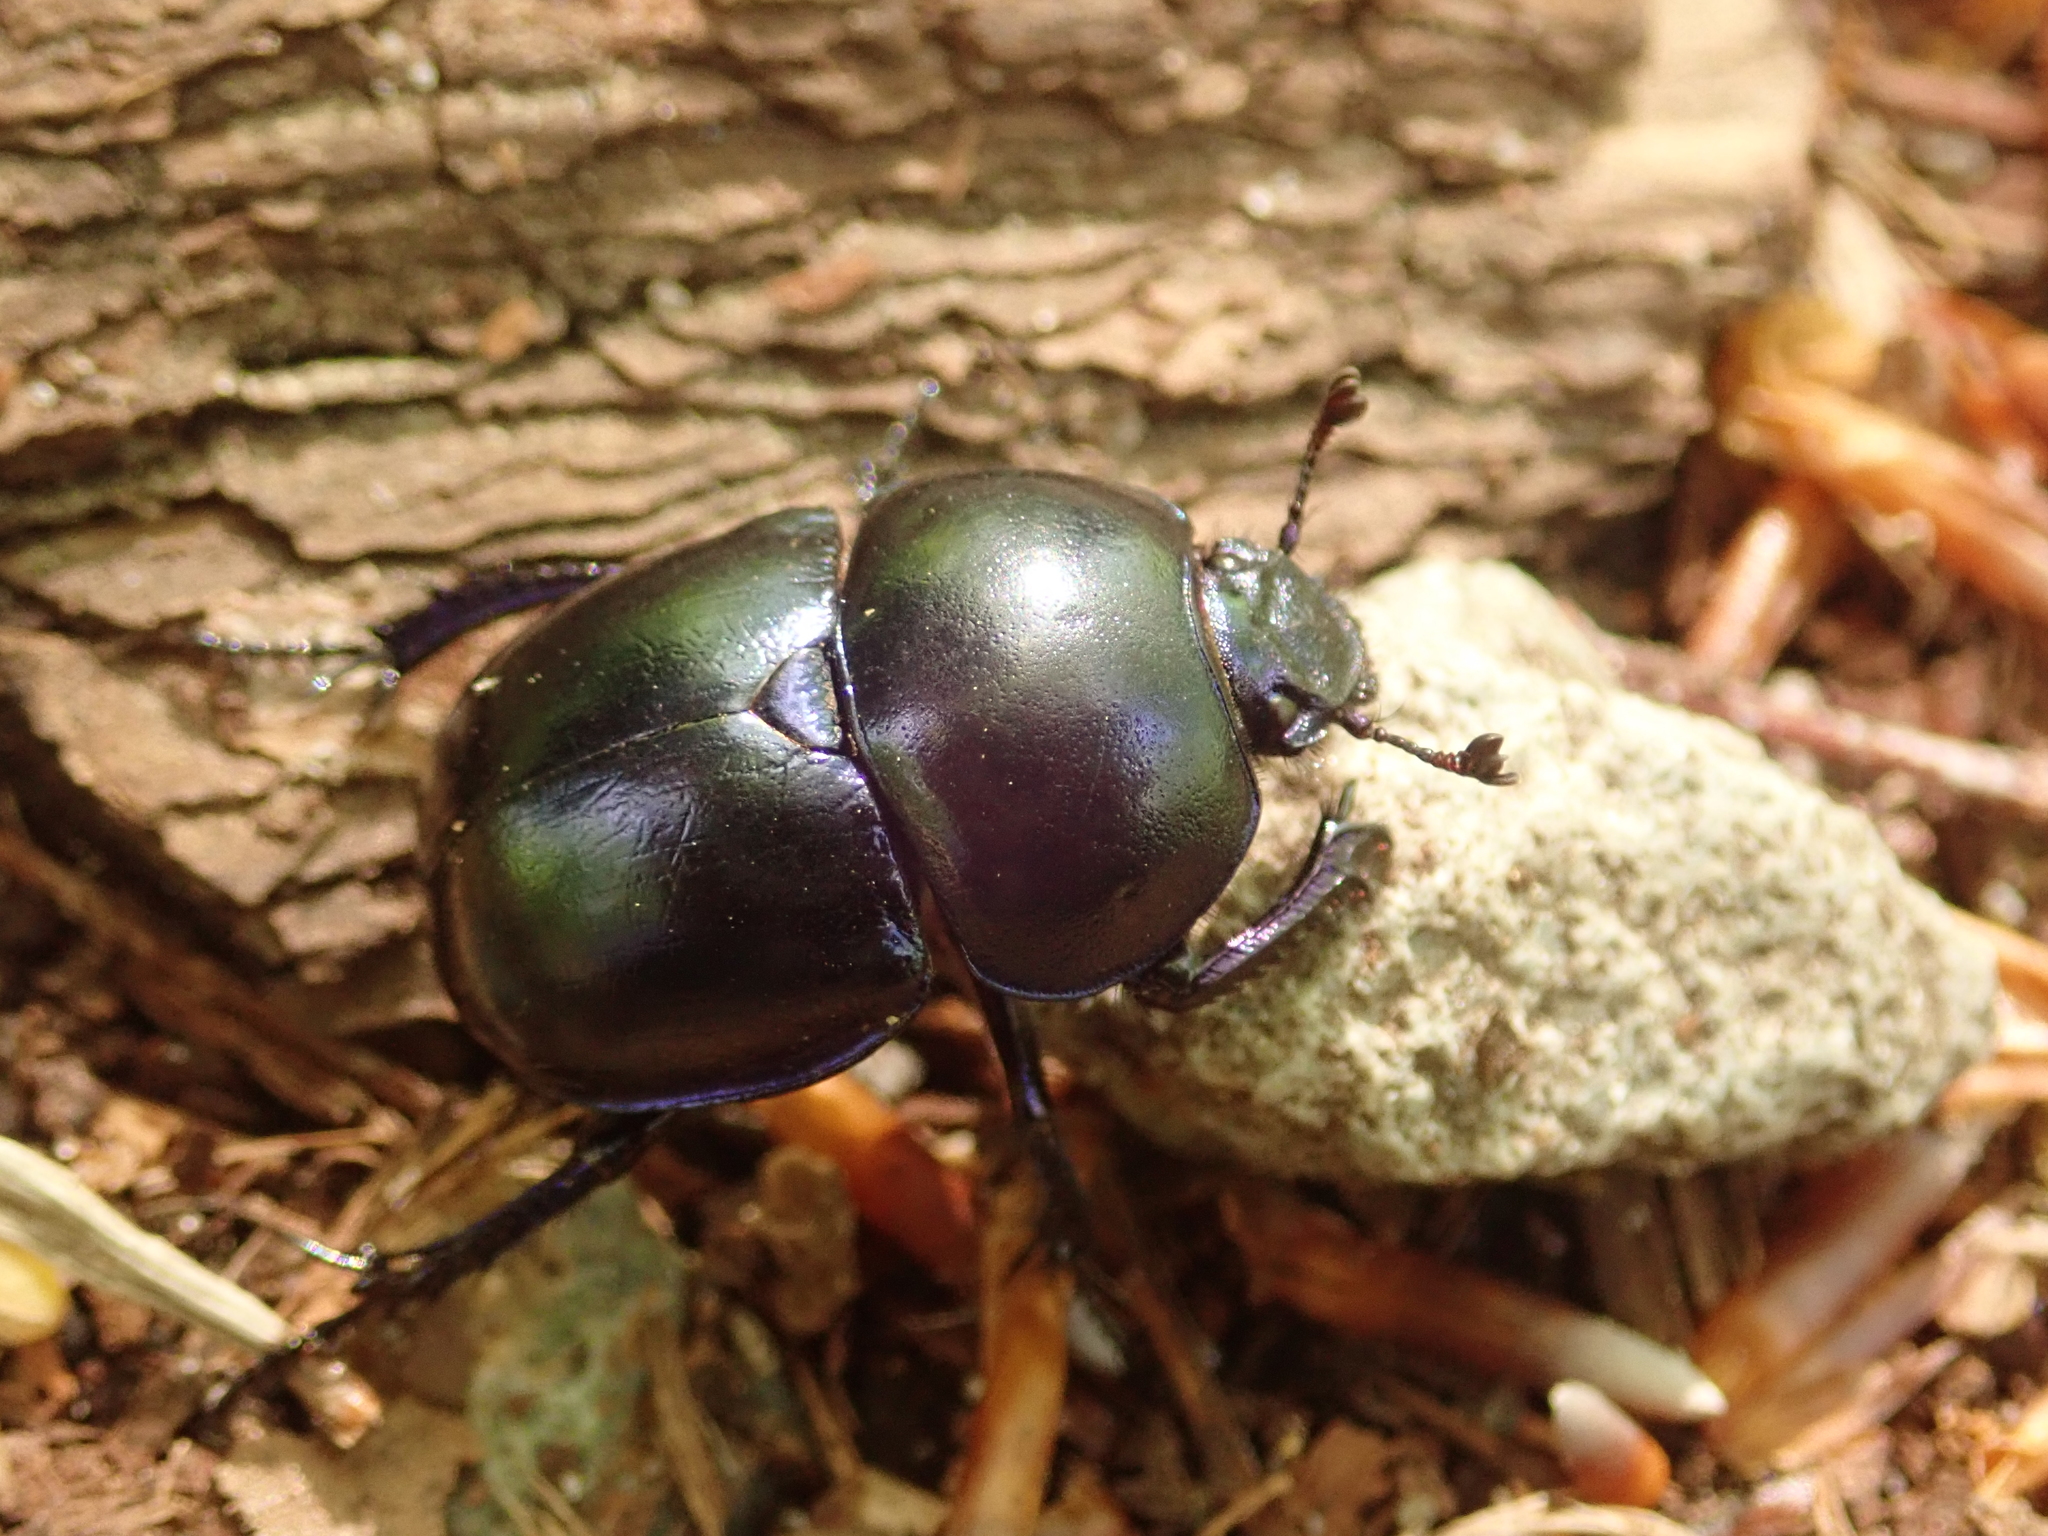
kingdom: Animalia
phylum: Arthropoda
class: Insecta
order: Coleoptera
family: Geotrupidae
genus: Trypocopris
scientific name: Trypocopris vernalis
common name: Spring dumbledor
